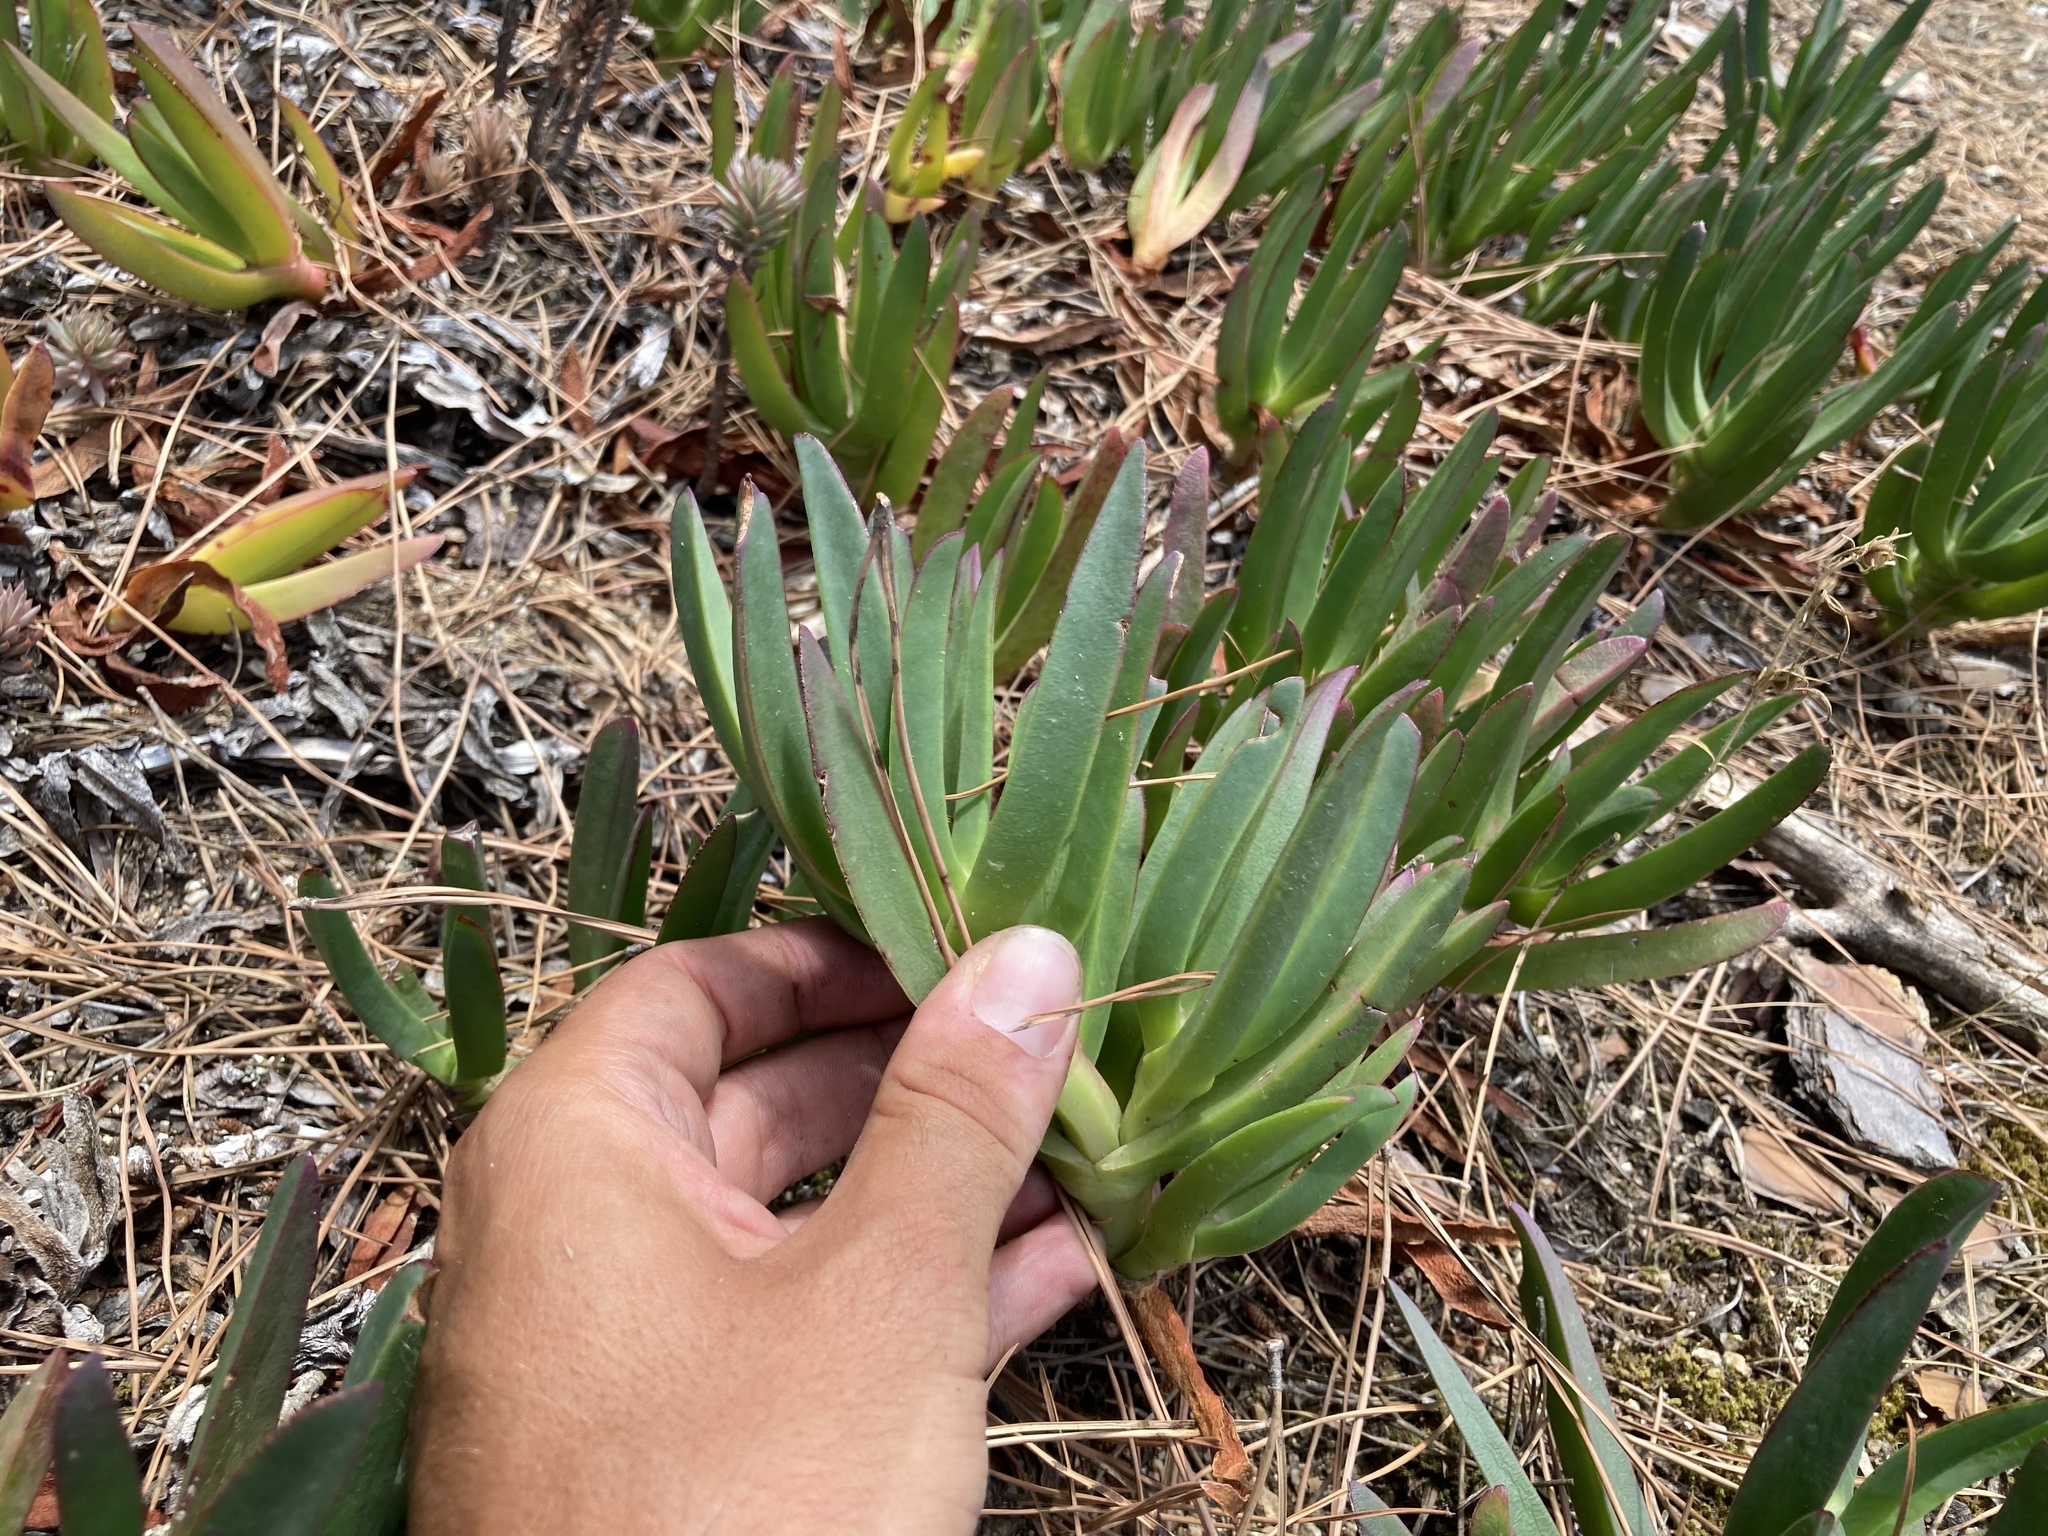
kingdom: Plantae
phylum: Tracheophyta
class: Magnoliopsida
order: Caryophyllales
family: Aizoaceae
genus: Carpobrotus
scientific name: Carpobrotus edulis
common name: Hottentot-fig
